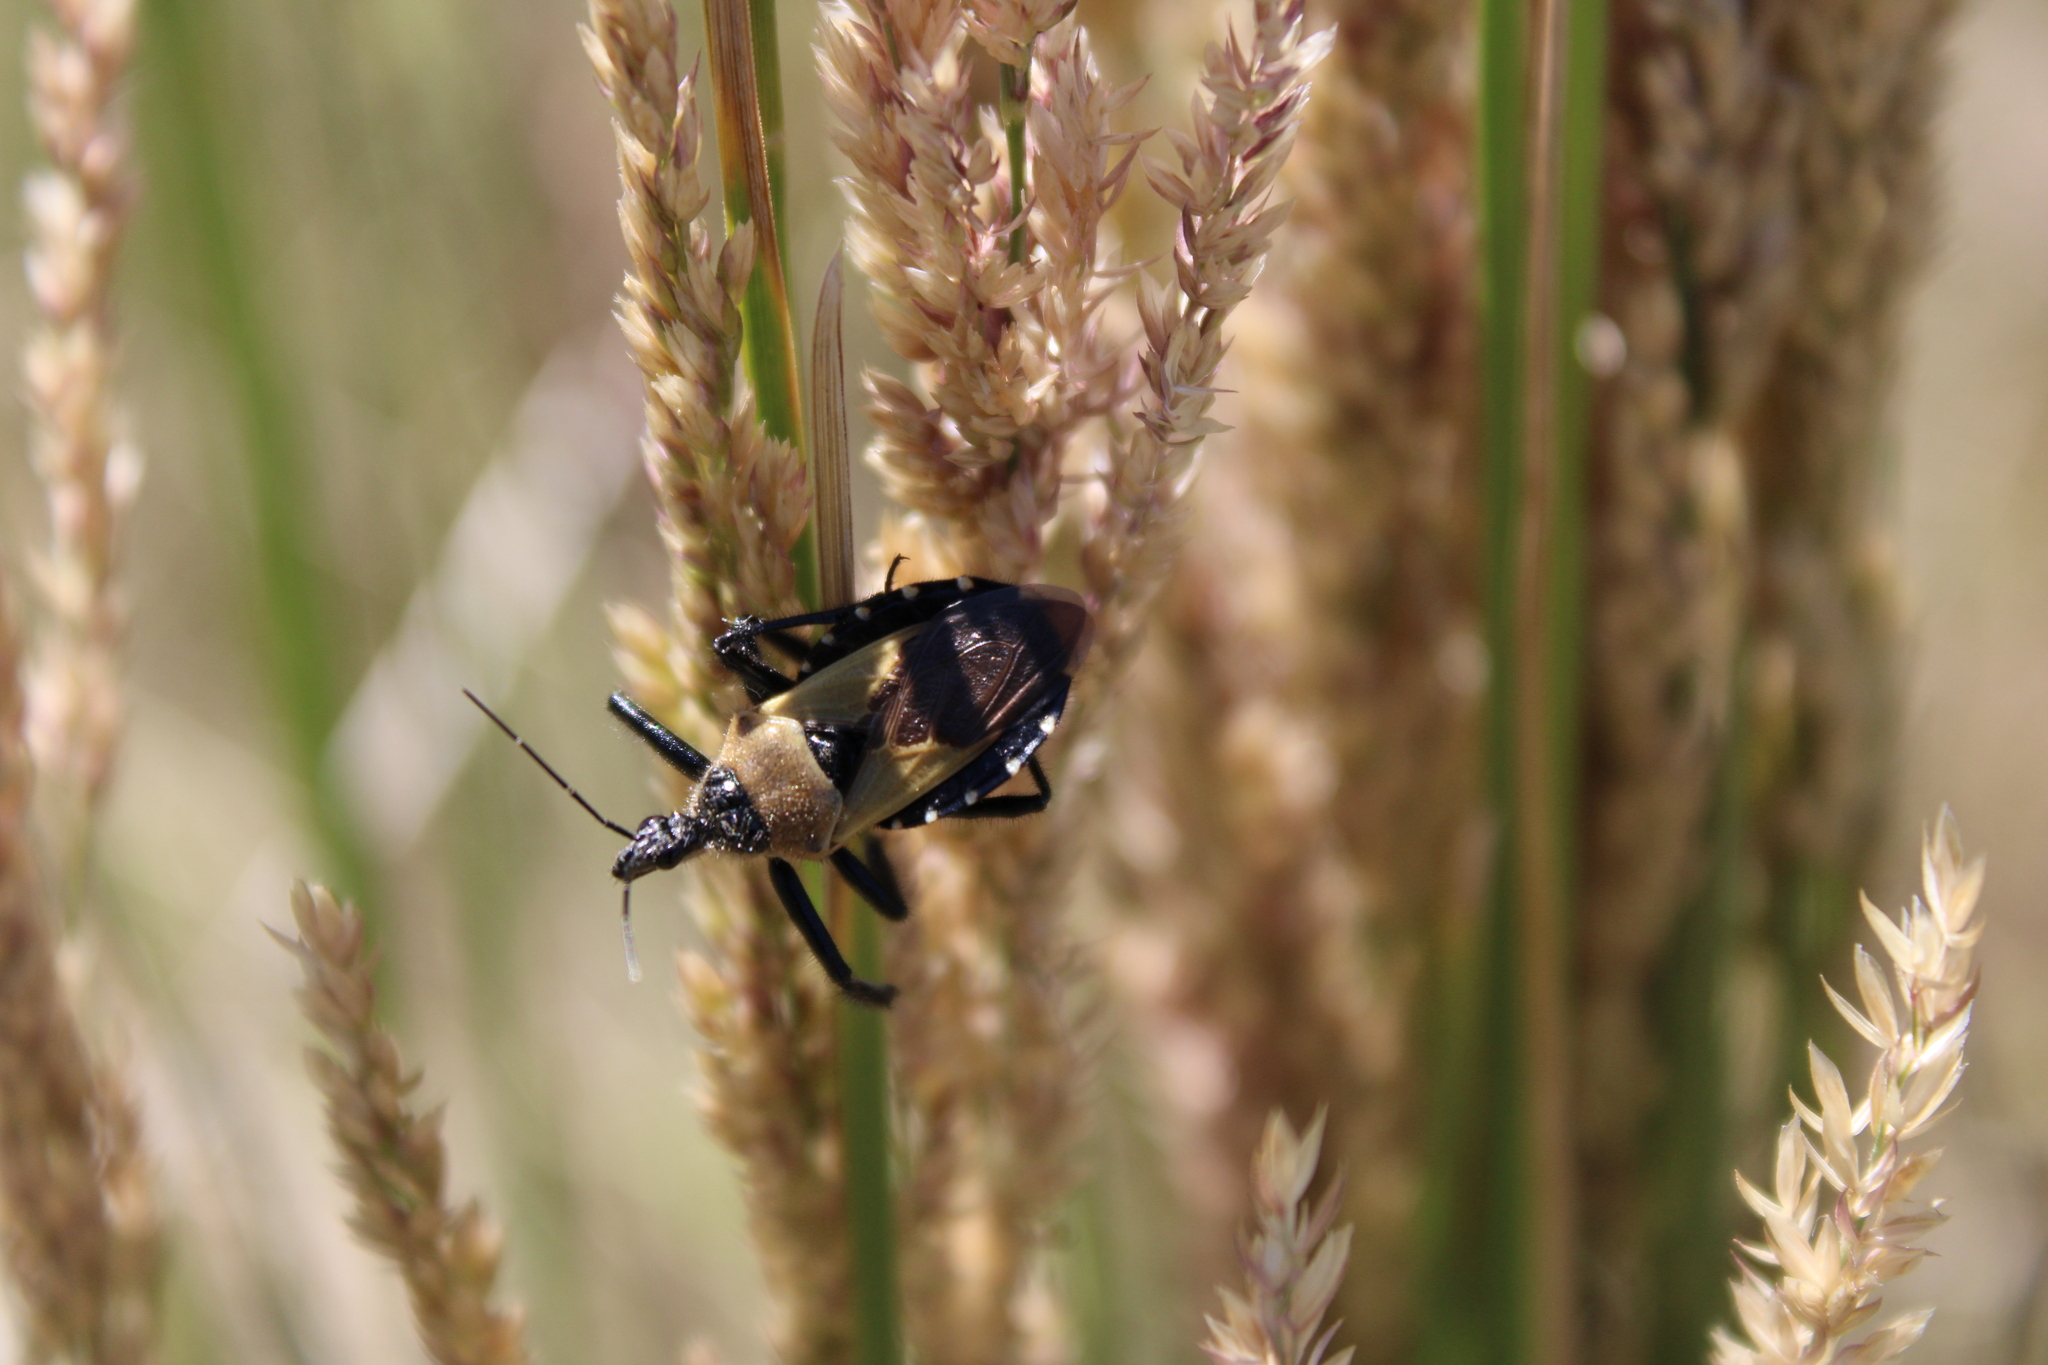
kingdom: Animalia
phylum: Arthropoda
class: Insecta
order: Hemiptera
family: Reduviidae
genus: Apiomerus
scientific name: Apiomerus barbiellinii
